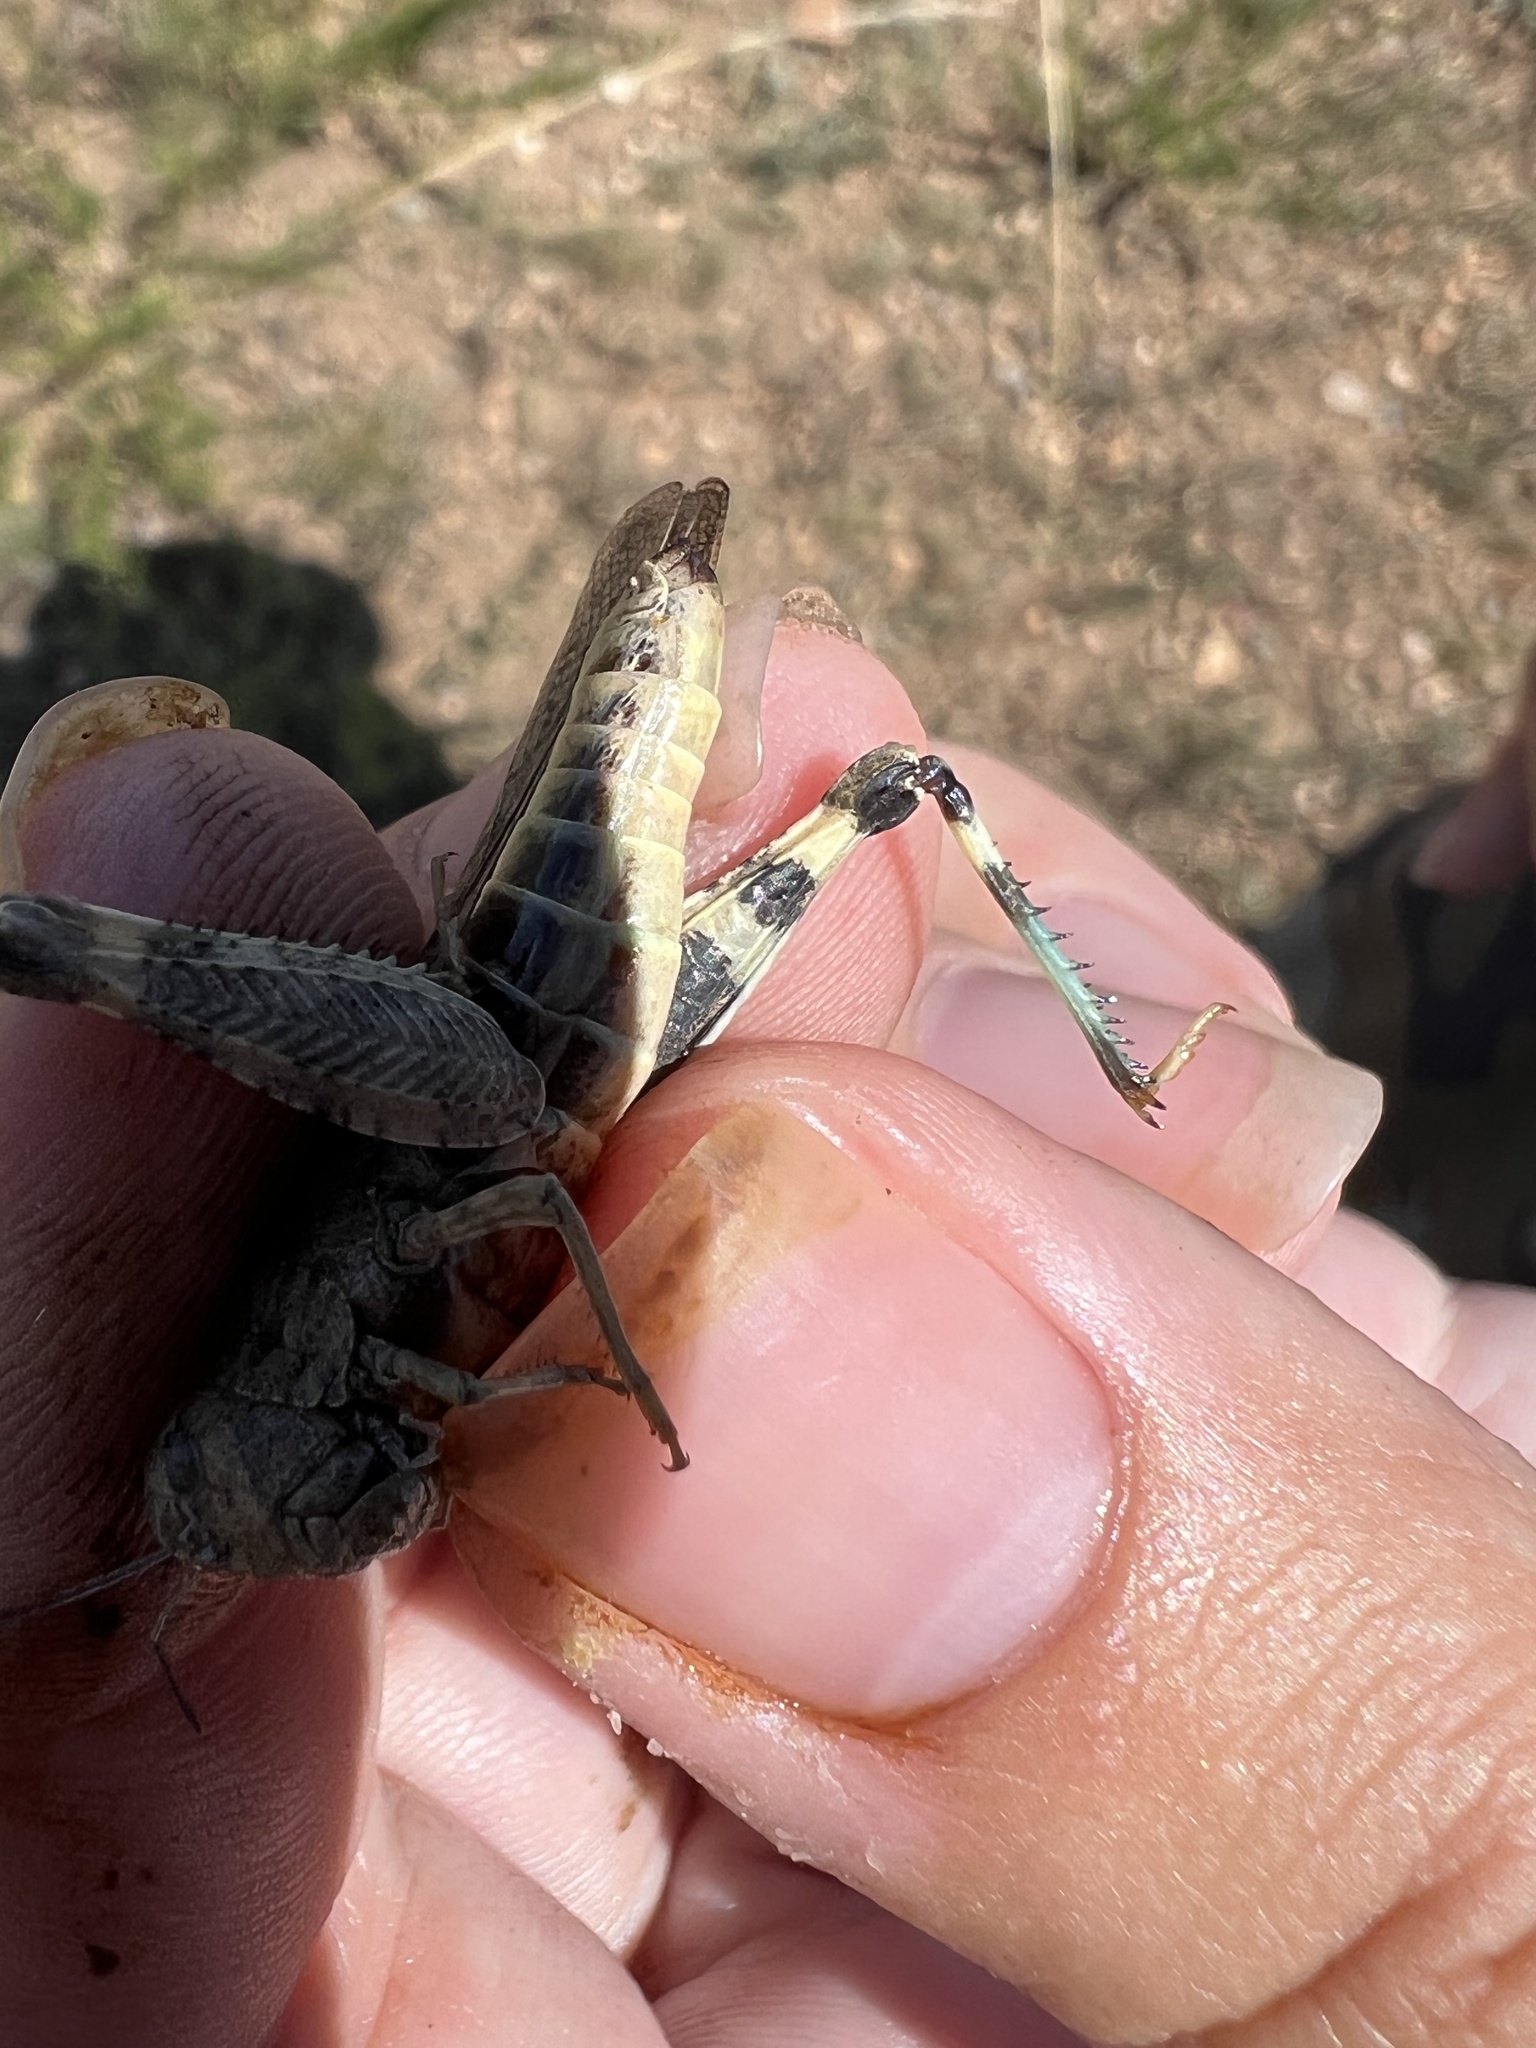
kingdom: Animalia
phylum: Arthropoda
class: Insecta
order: Orthoptera
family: Acrididae
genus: Arphia
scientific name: Arphia conspersa
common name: Speckle-winged rangeland grasshopper
